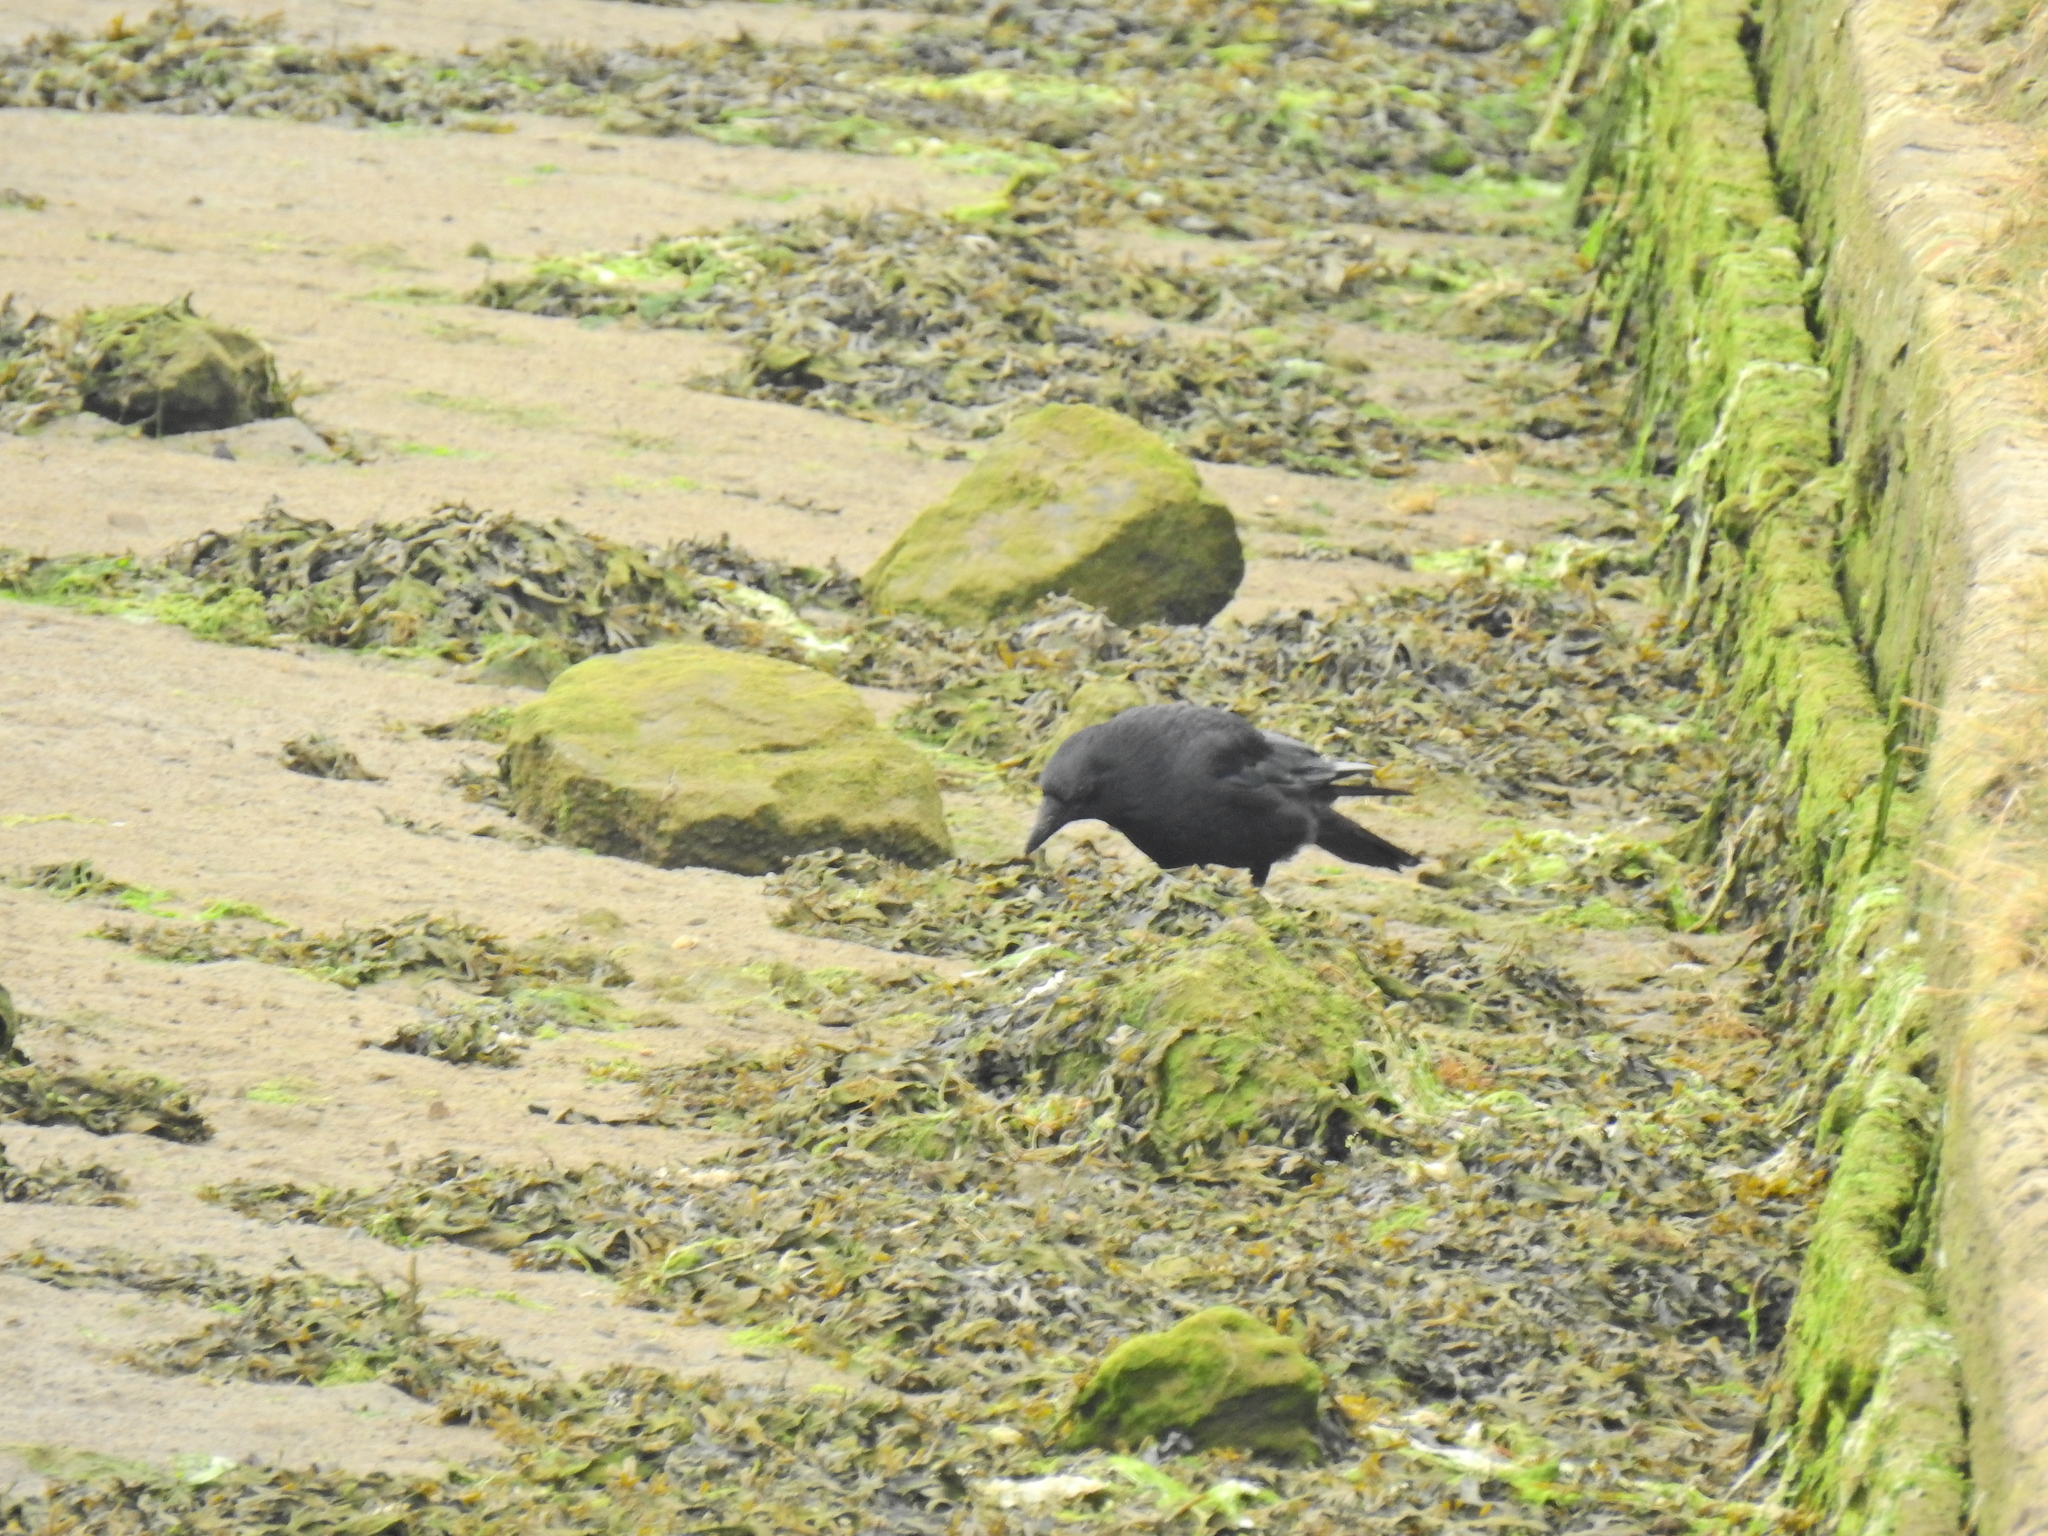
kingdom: Animalia
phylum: Chordata
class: Aves
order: Passeriformes
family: Corvidae
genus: Corvus
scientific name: Corvus corone
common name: Carrion crow
